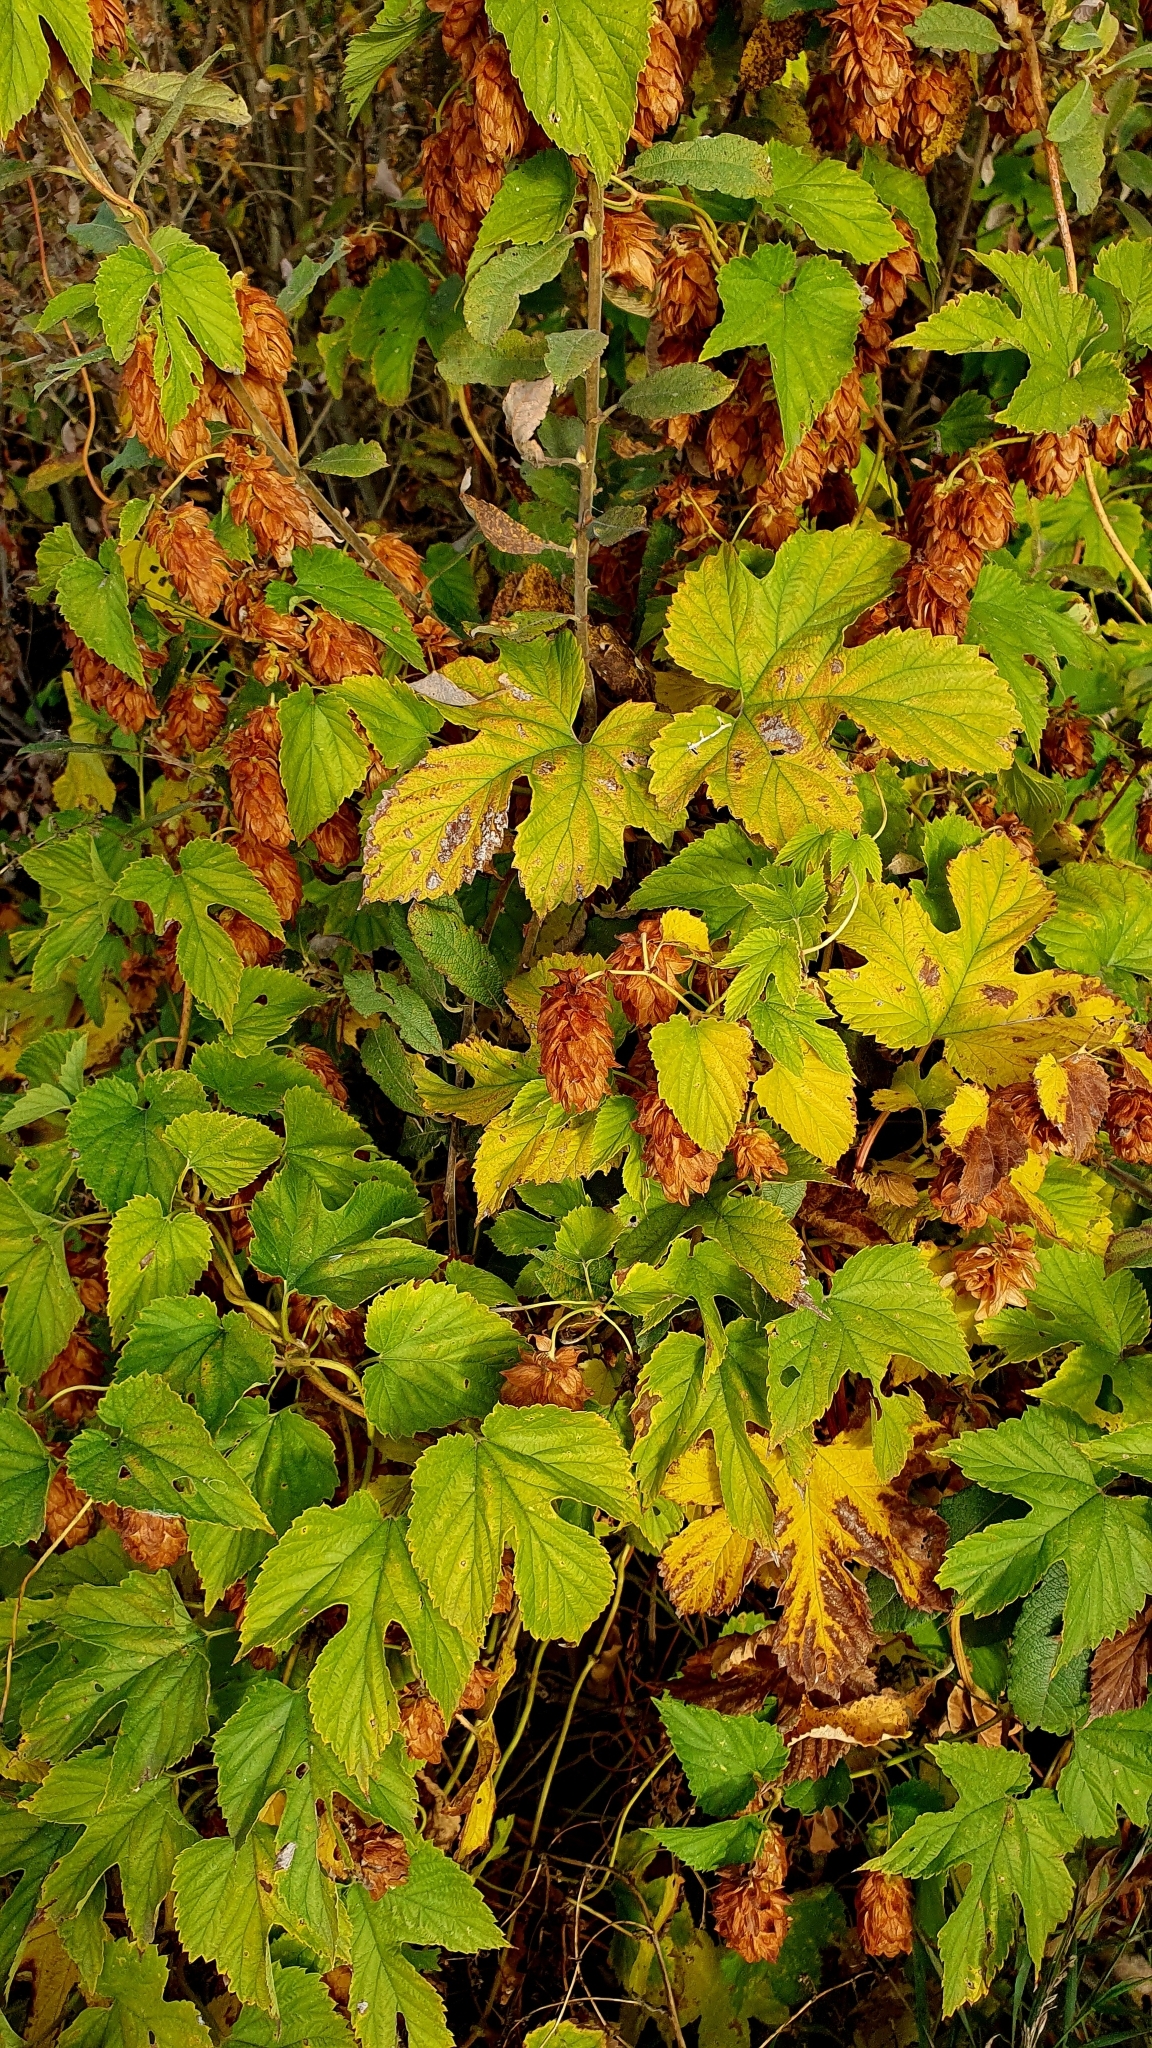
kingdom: Plantae
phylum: Tracheophyta
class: Magnoliopsida
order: Rosales
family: Cannabaceae
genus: Humulus
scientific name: Humulus lupulus
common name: Hop
